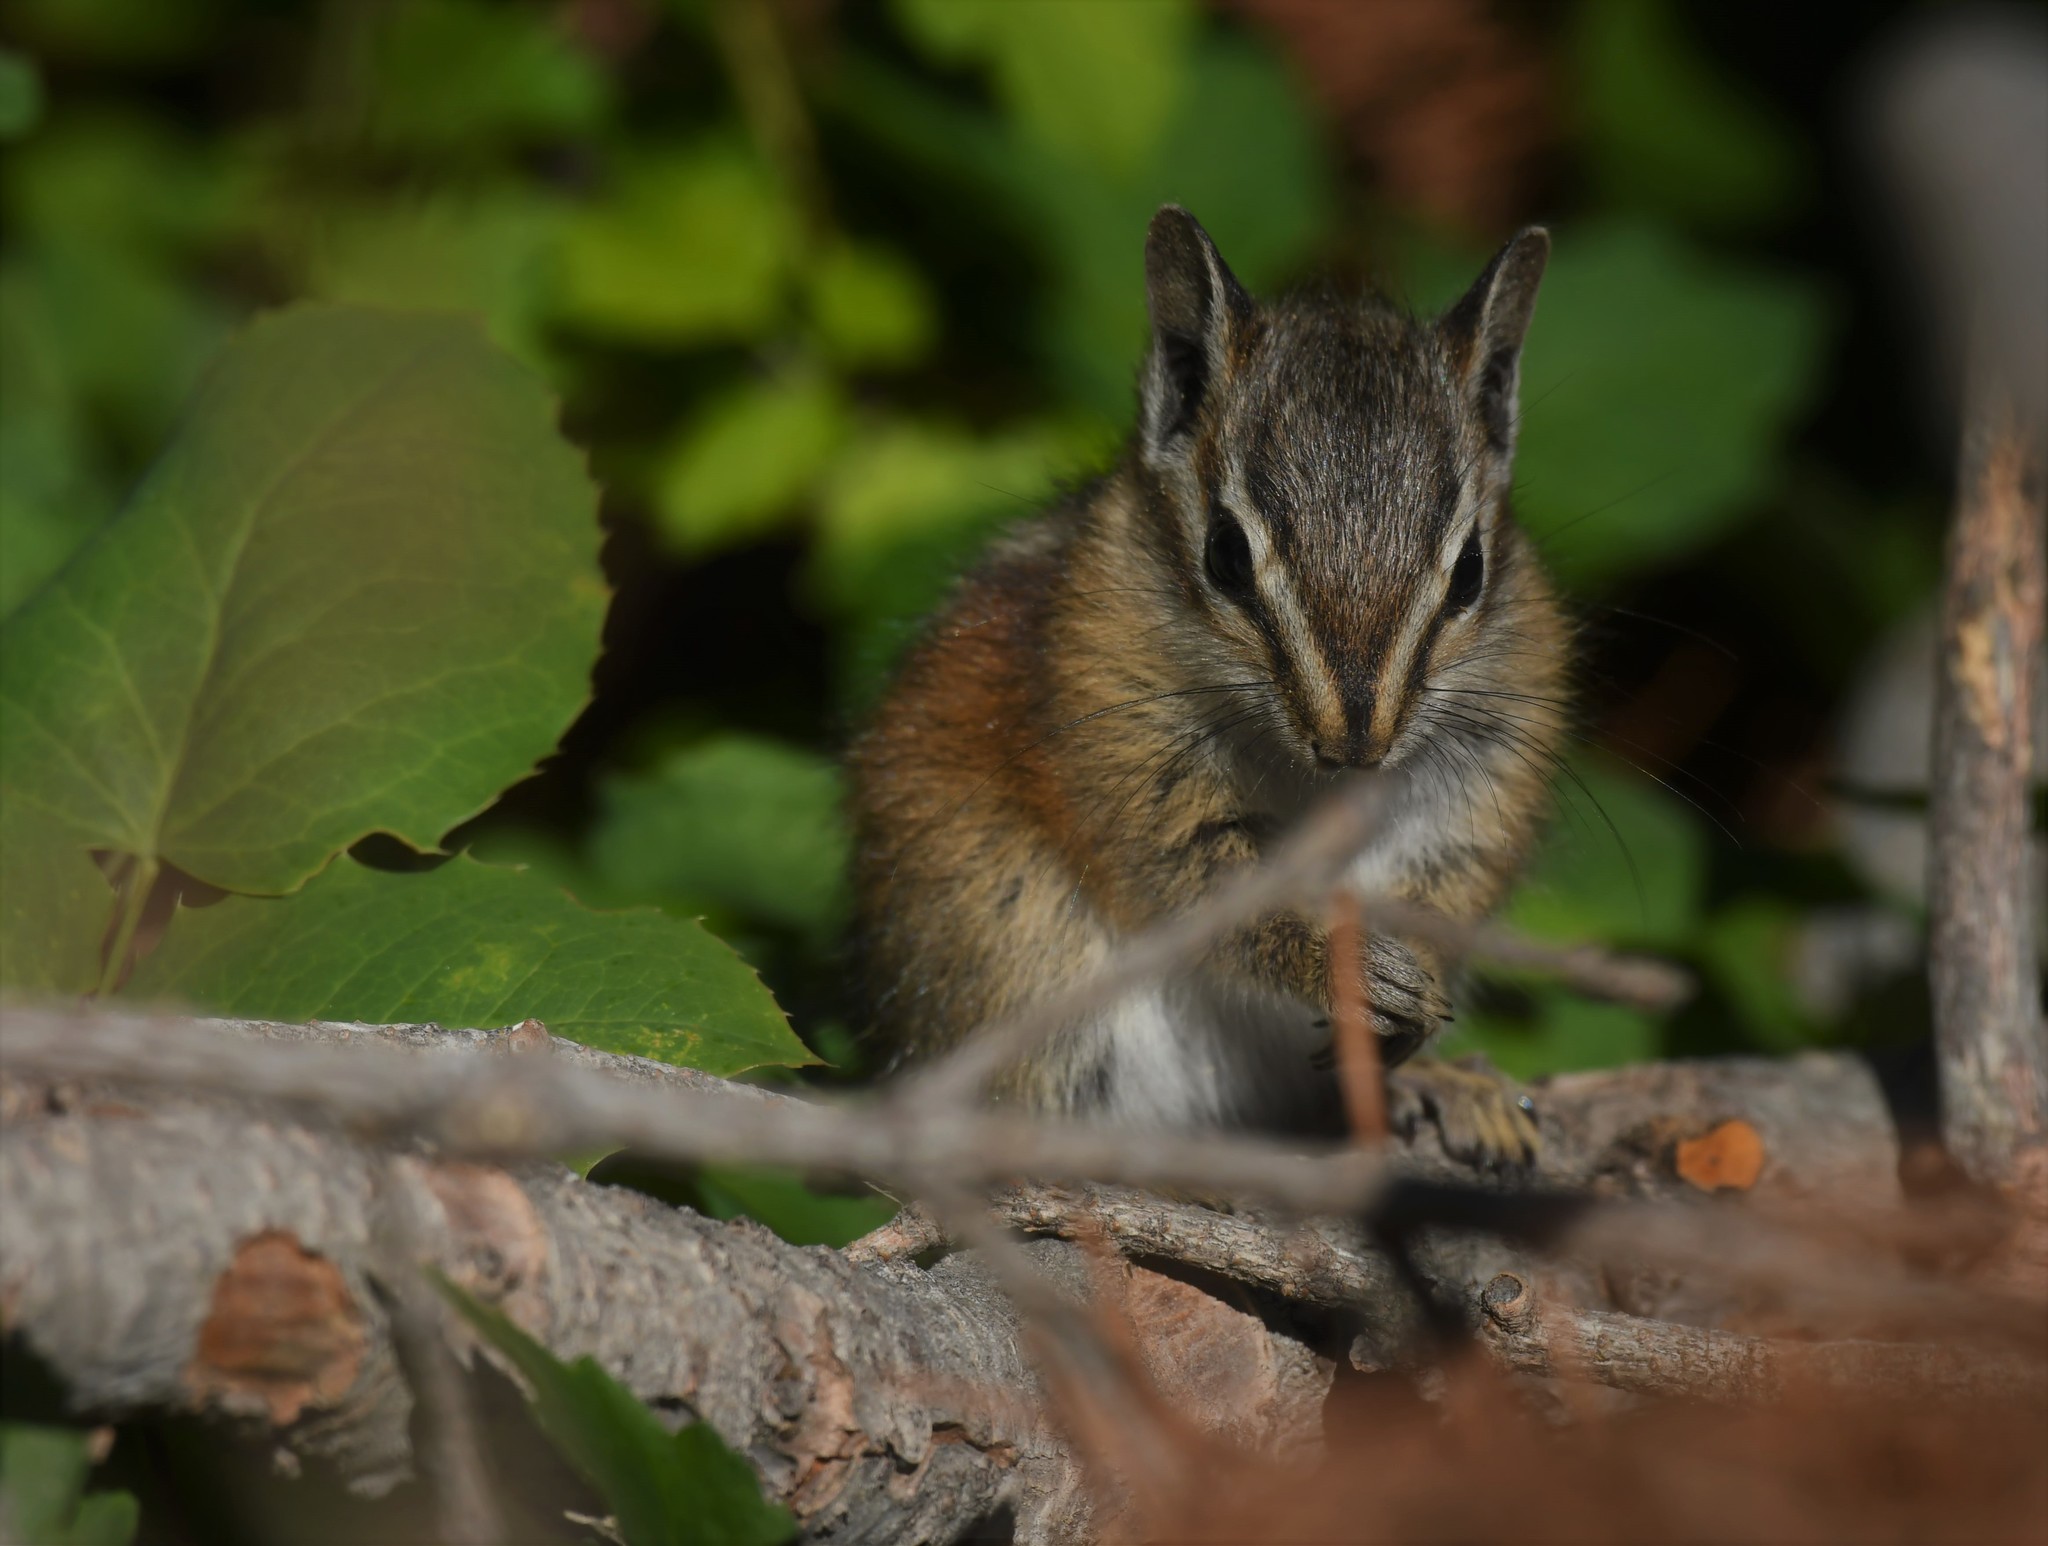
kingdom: Animalia
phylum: Chordata
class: Mammalia
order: Rodentia
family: Sciuridae
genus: Tamias
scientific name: Tamias umbrinus
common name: Uinta chipmunk
